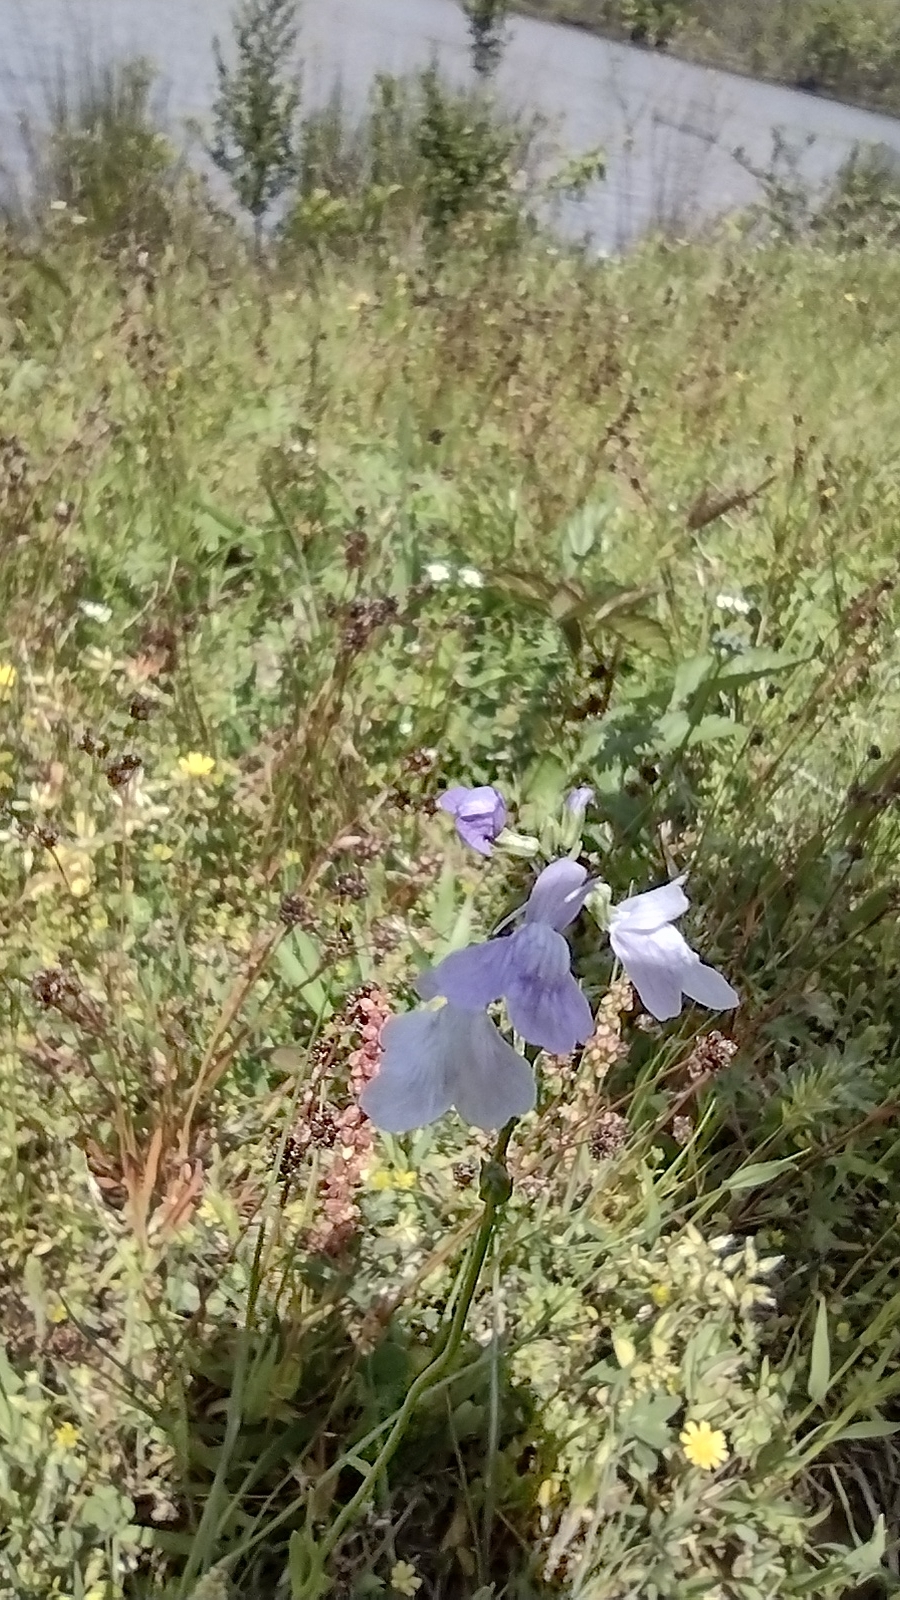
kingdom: Plantae
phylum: Tracheophyta
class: Magnoliopsida
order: Lamiales
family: Plantaginaceae
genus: Nuttallanthus
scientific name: Nuttallanthus texanus
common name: Texas toadflax
